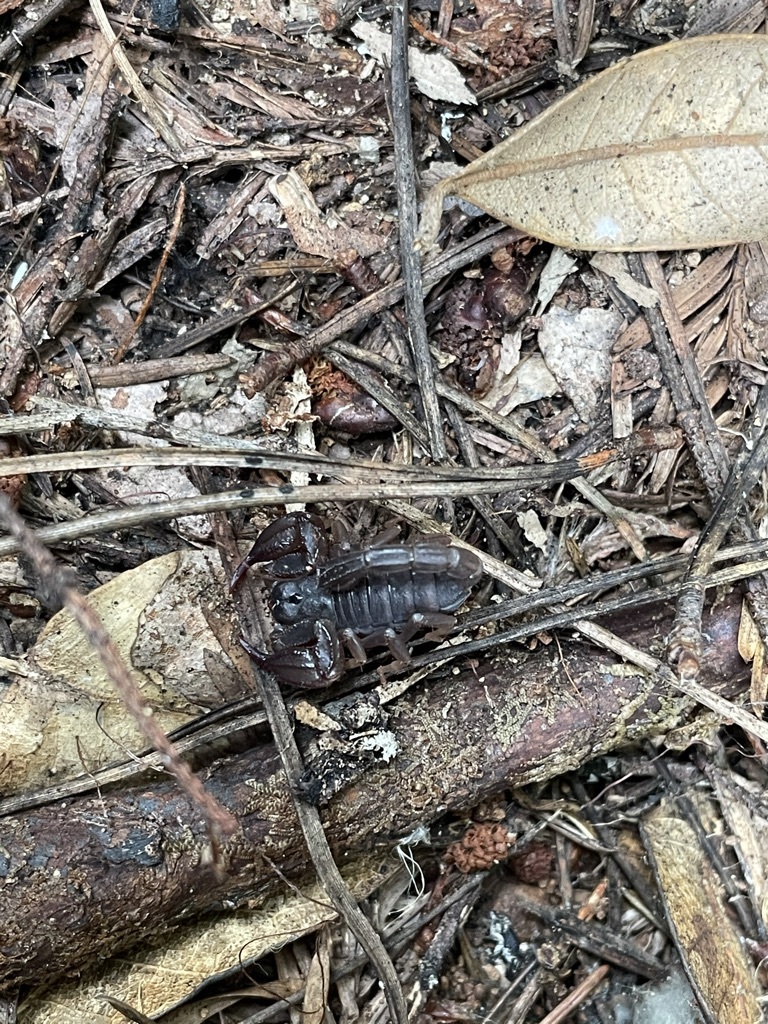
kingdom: Animalia
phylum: Arthropoda
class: Arachnida
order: Scorpiones
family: Chactidae
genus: Uroctonus
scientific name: Uroctonus mordax
